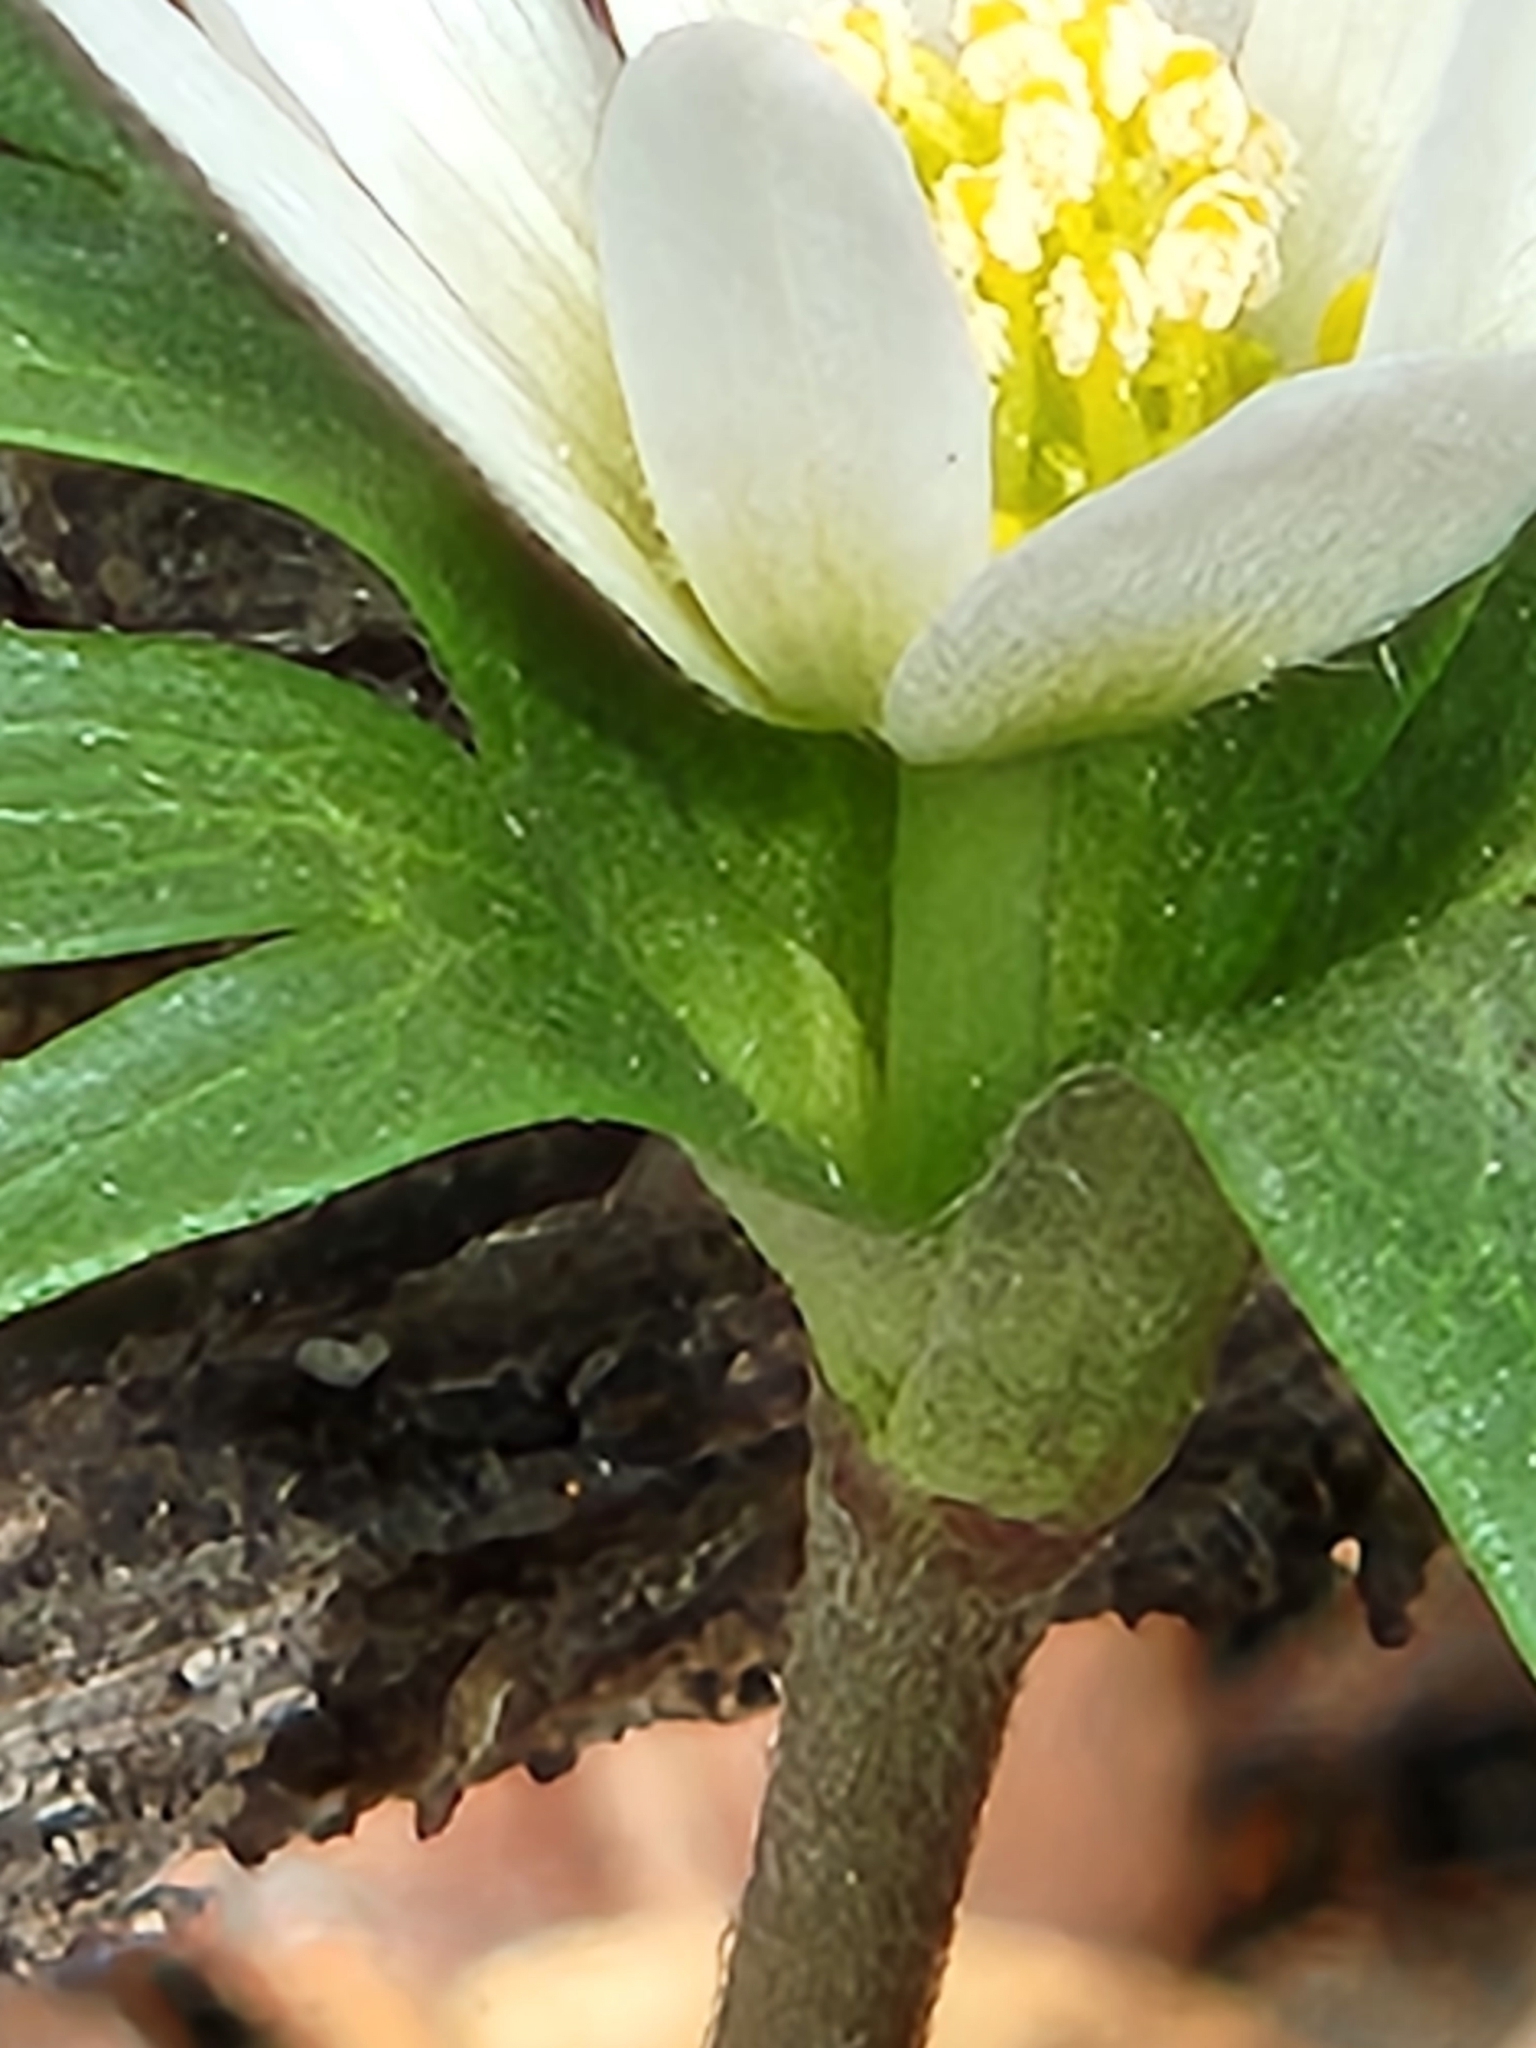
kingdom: Plantae
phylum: Tracheophyta
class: Magnoliopsida
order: Ranunculales
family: Ranunculaceae
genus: Anemone
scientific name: Anemone edwardsiana
